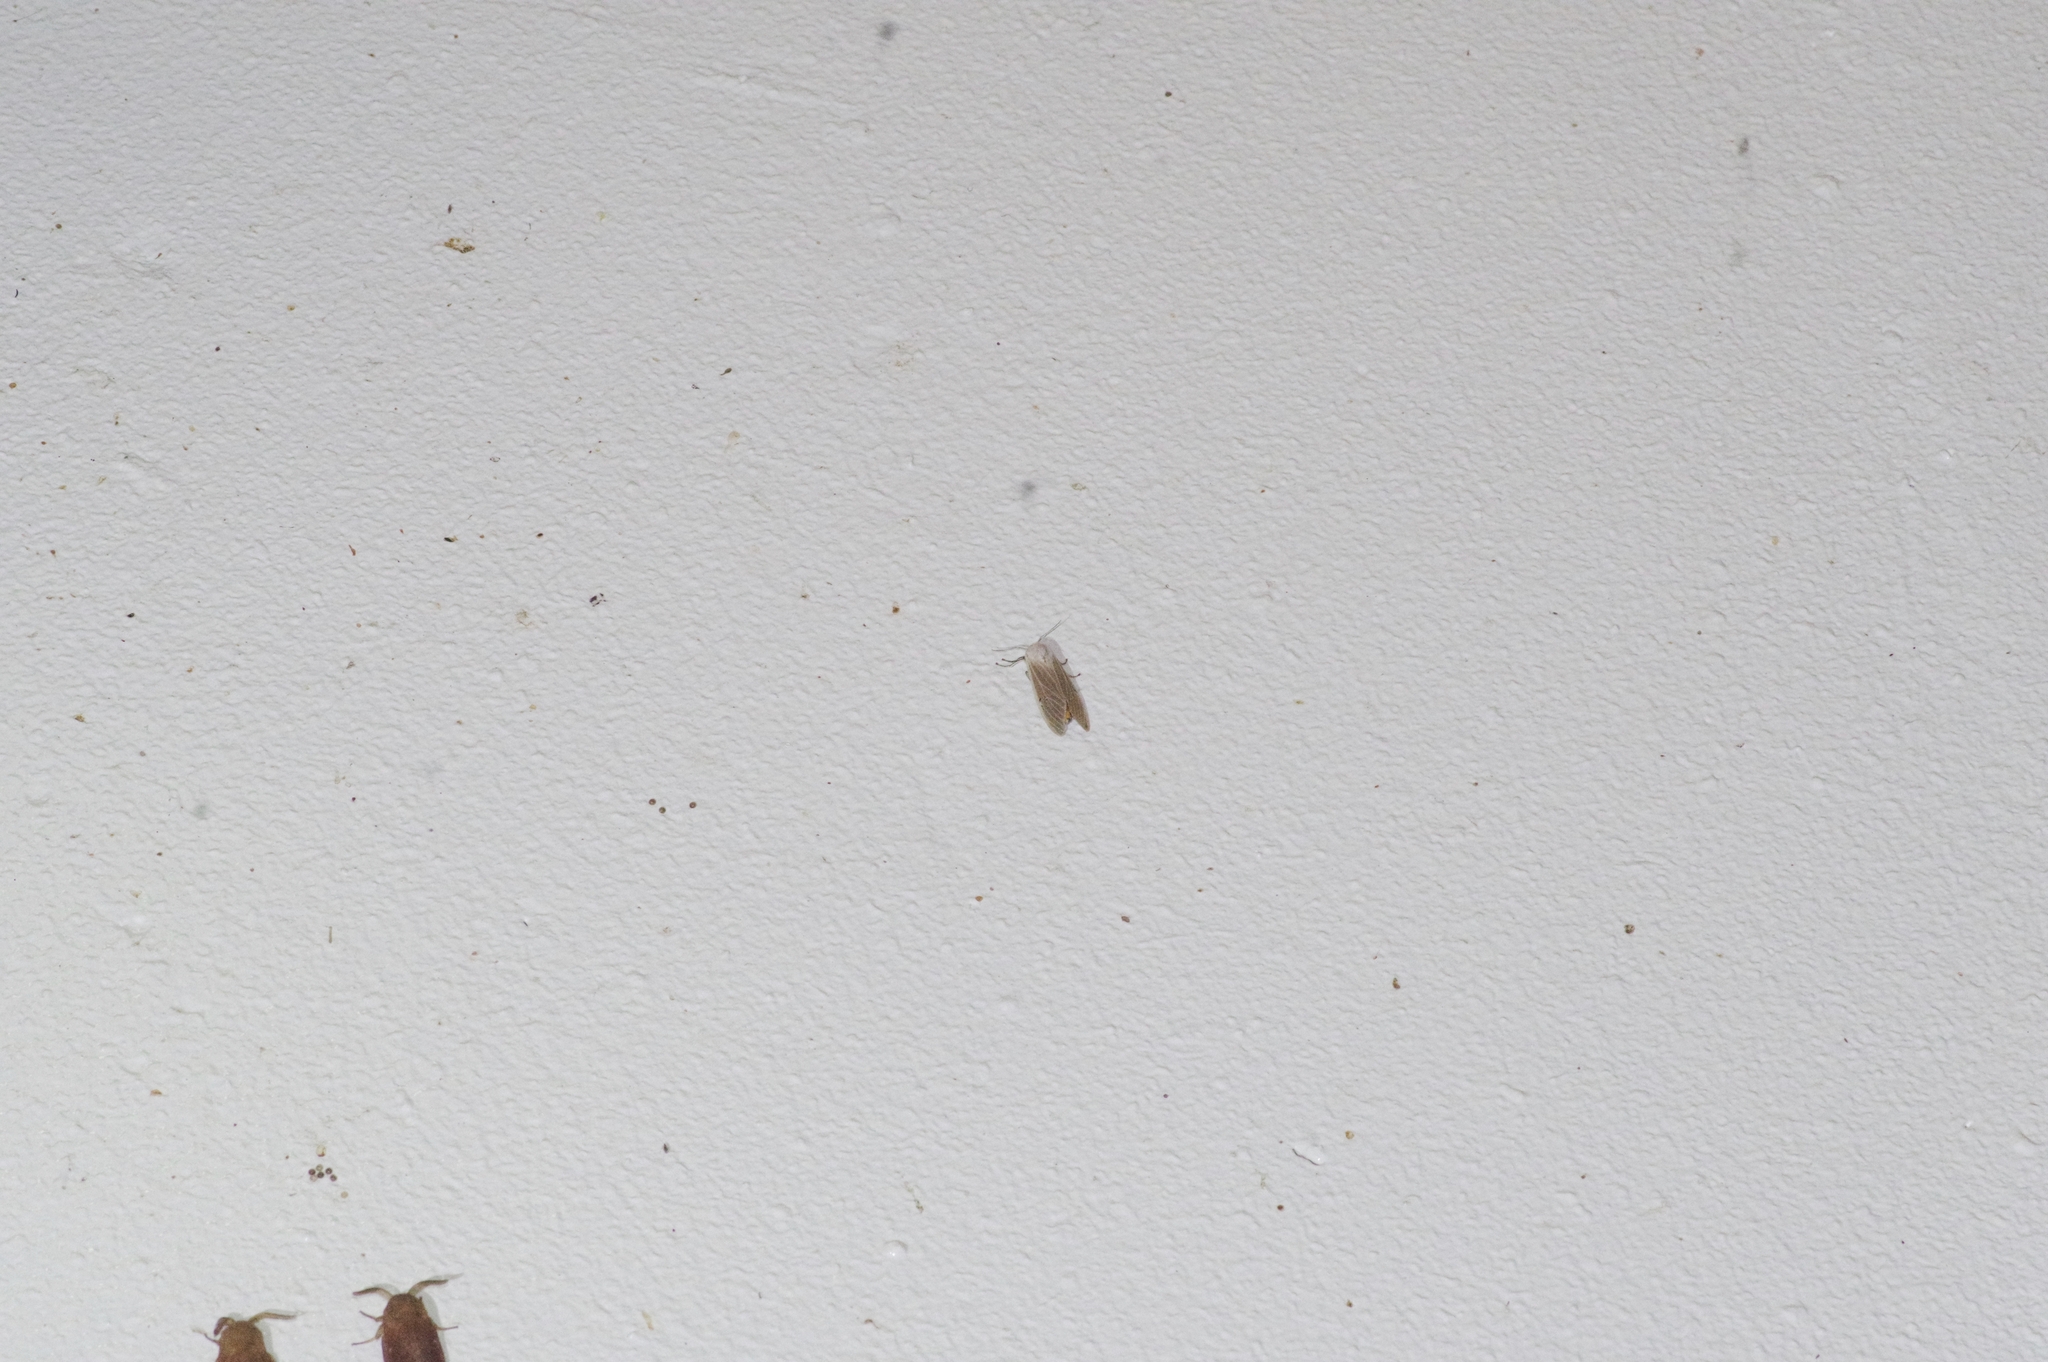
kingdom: Animalia
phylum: Arthropoda
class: Insecta
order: Lepidoptera
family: Erebidae
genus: Creatonotos
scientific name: Creatonotos transiens
